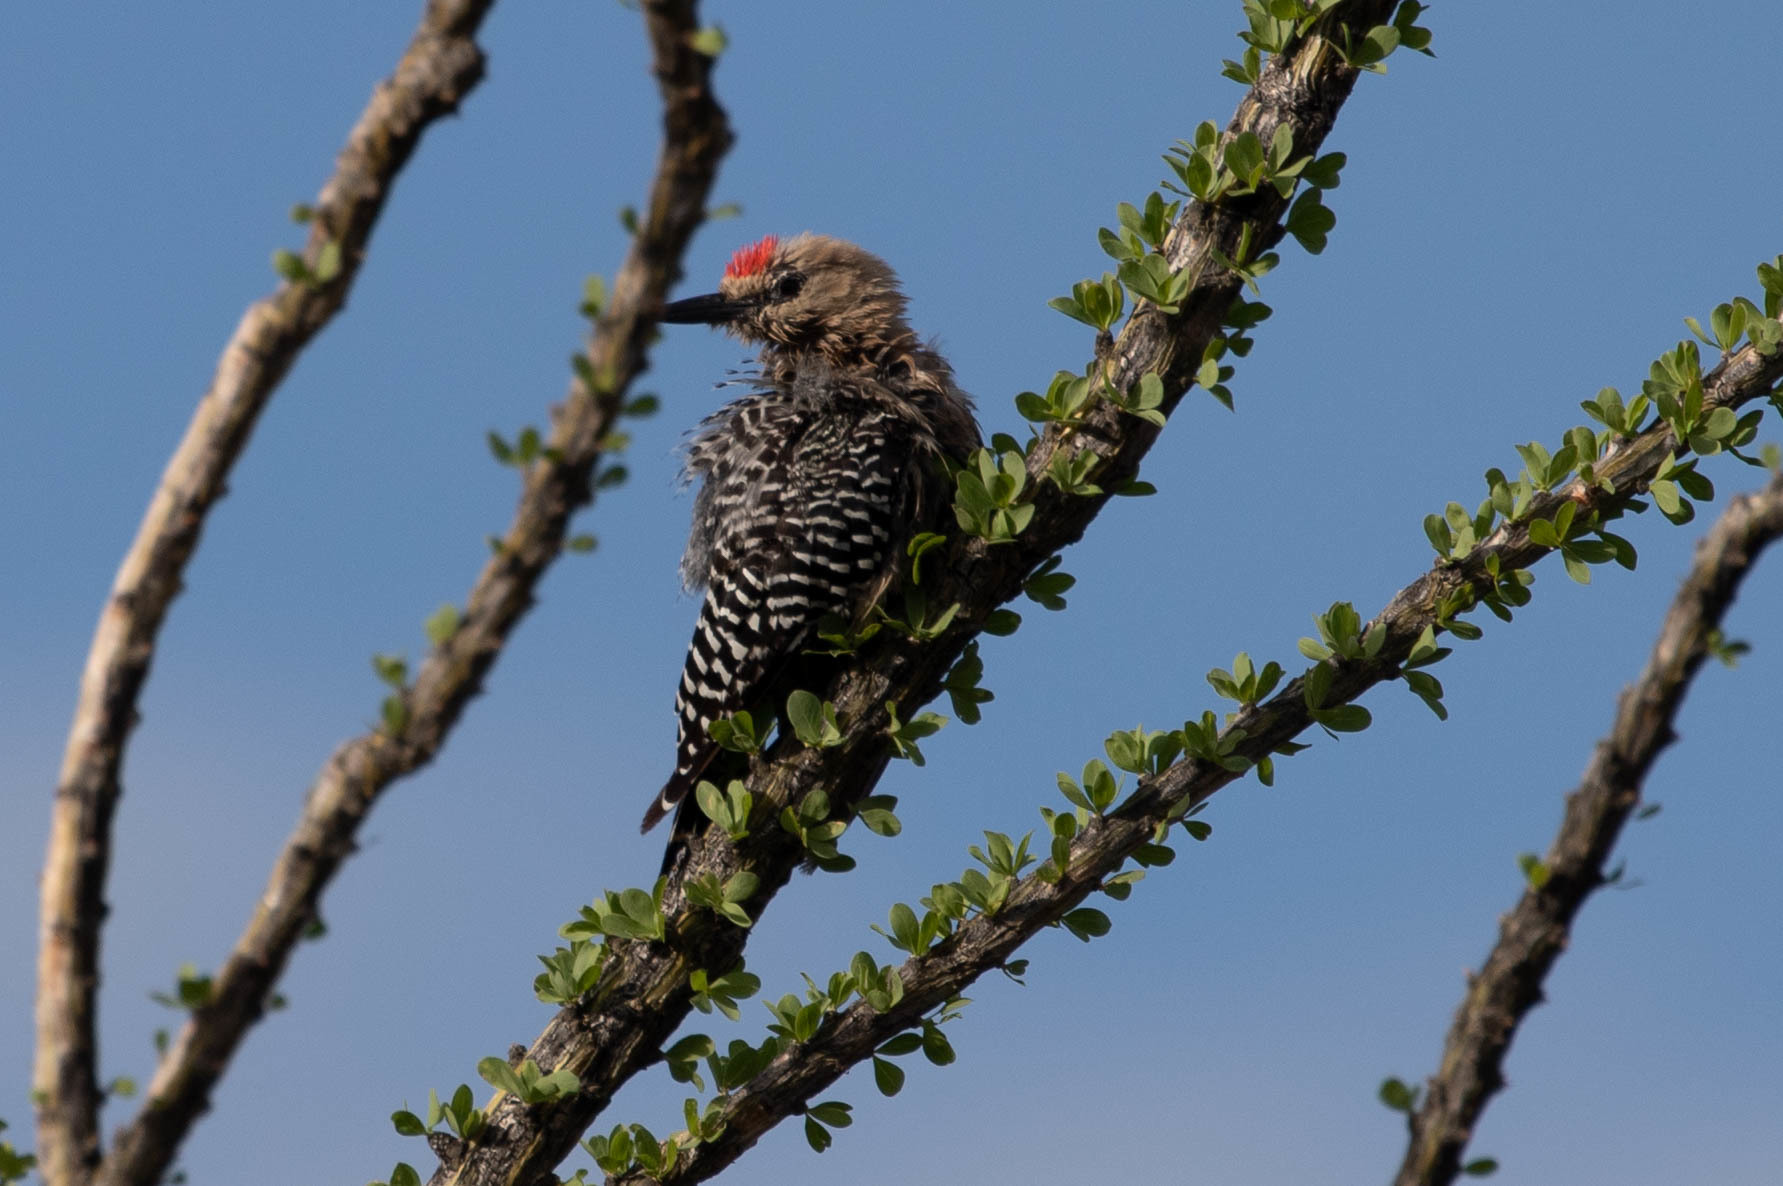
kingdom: Animalia
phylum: Chordata
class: Aves
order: Piciformes
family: Picidae
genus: Melanerpes
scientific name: Melanerpes uropygialis
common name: Gila woodpecker
